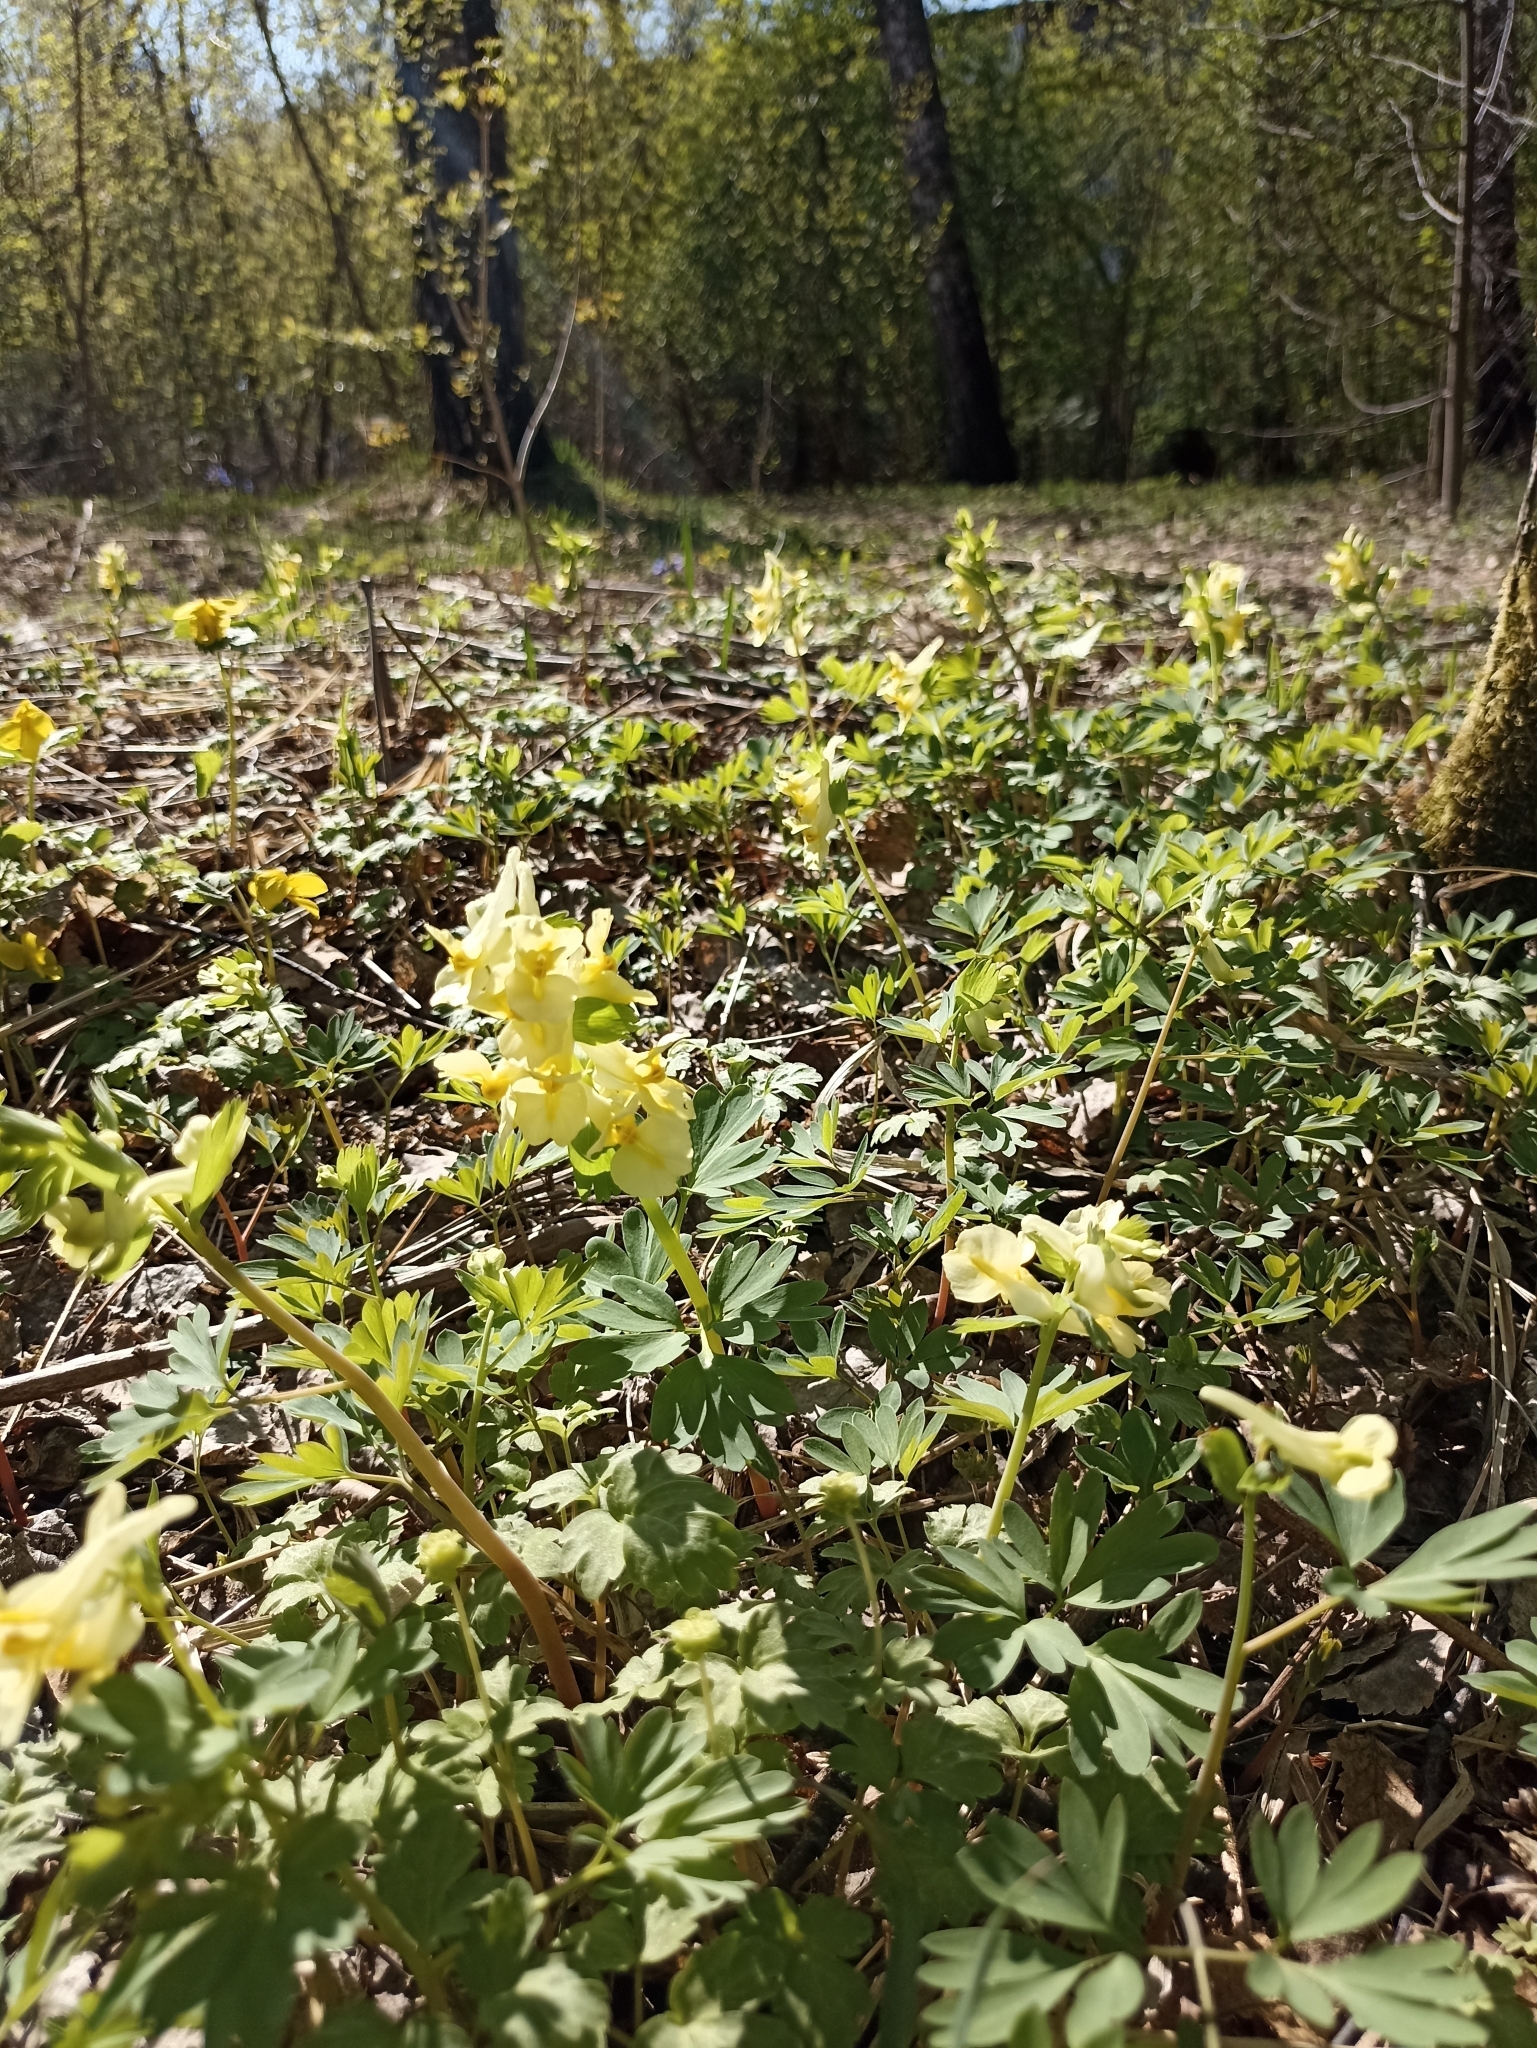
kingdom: Plantae
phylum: Tracheophyta
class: Magnoliopsida
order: Ranunculales
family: Papaveraceae
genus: Corydalis
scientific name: Corydalis bracteata
